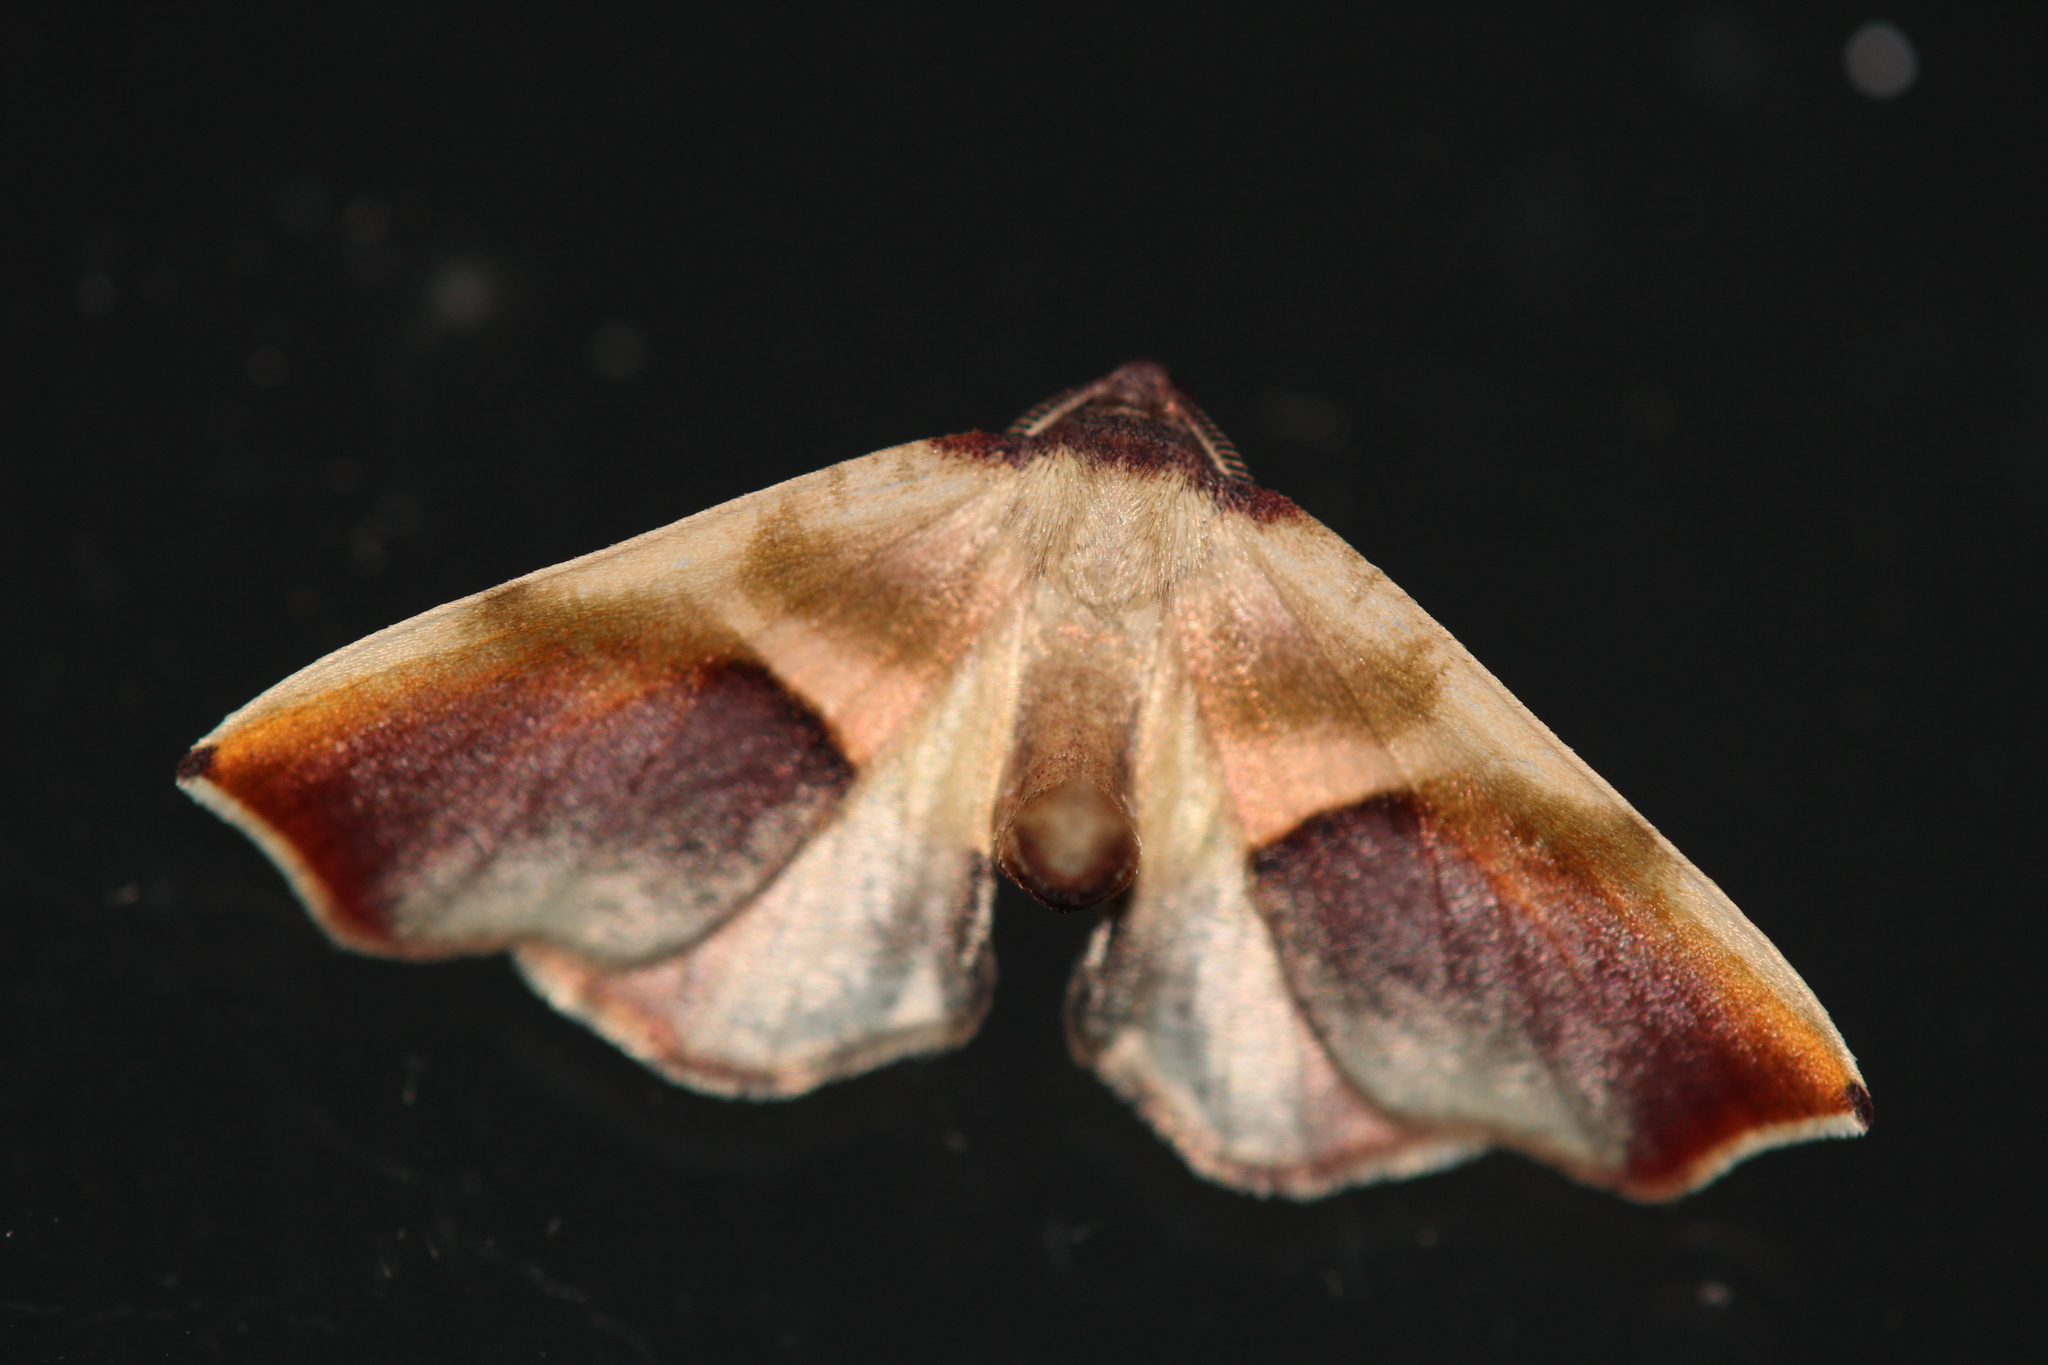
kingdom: Animalia
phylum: Arthropoda
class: Insecta
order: Lepidoptera
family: Geometridae
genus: Plagodis
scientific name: Plagodis kuetzingi
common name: Purple plagodis
